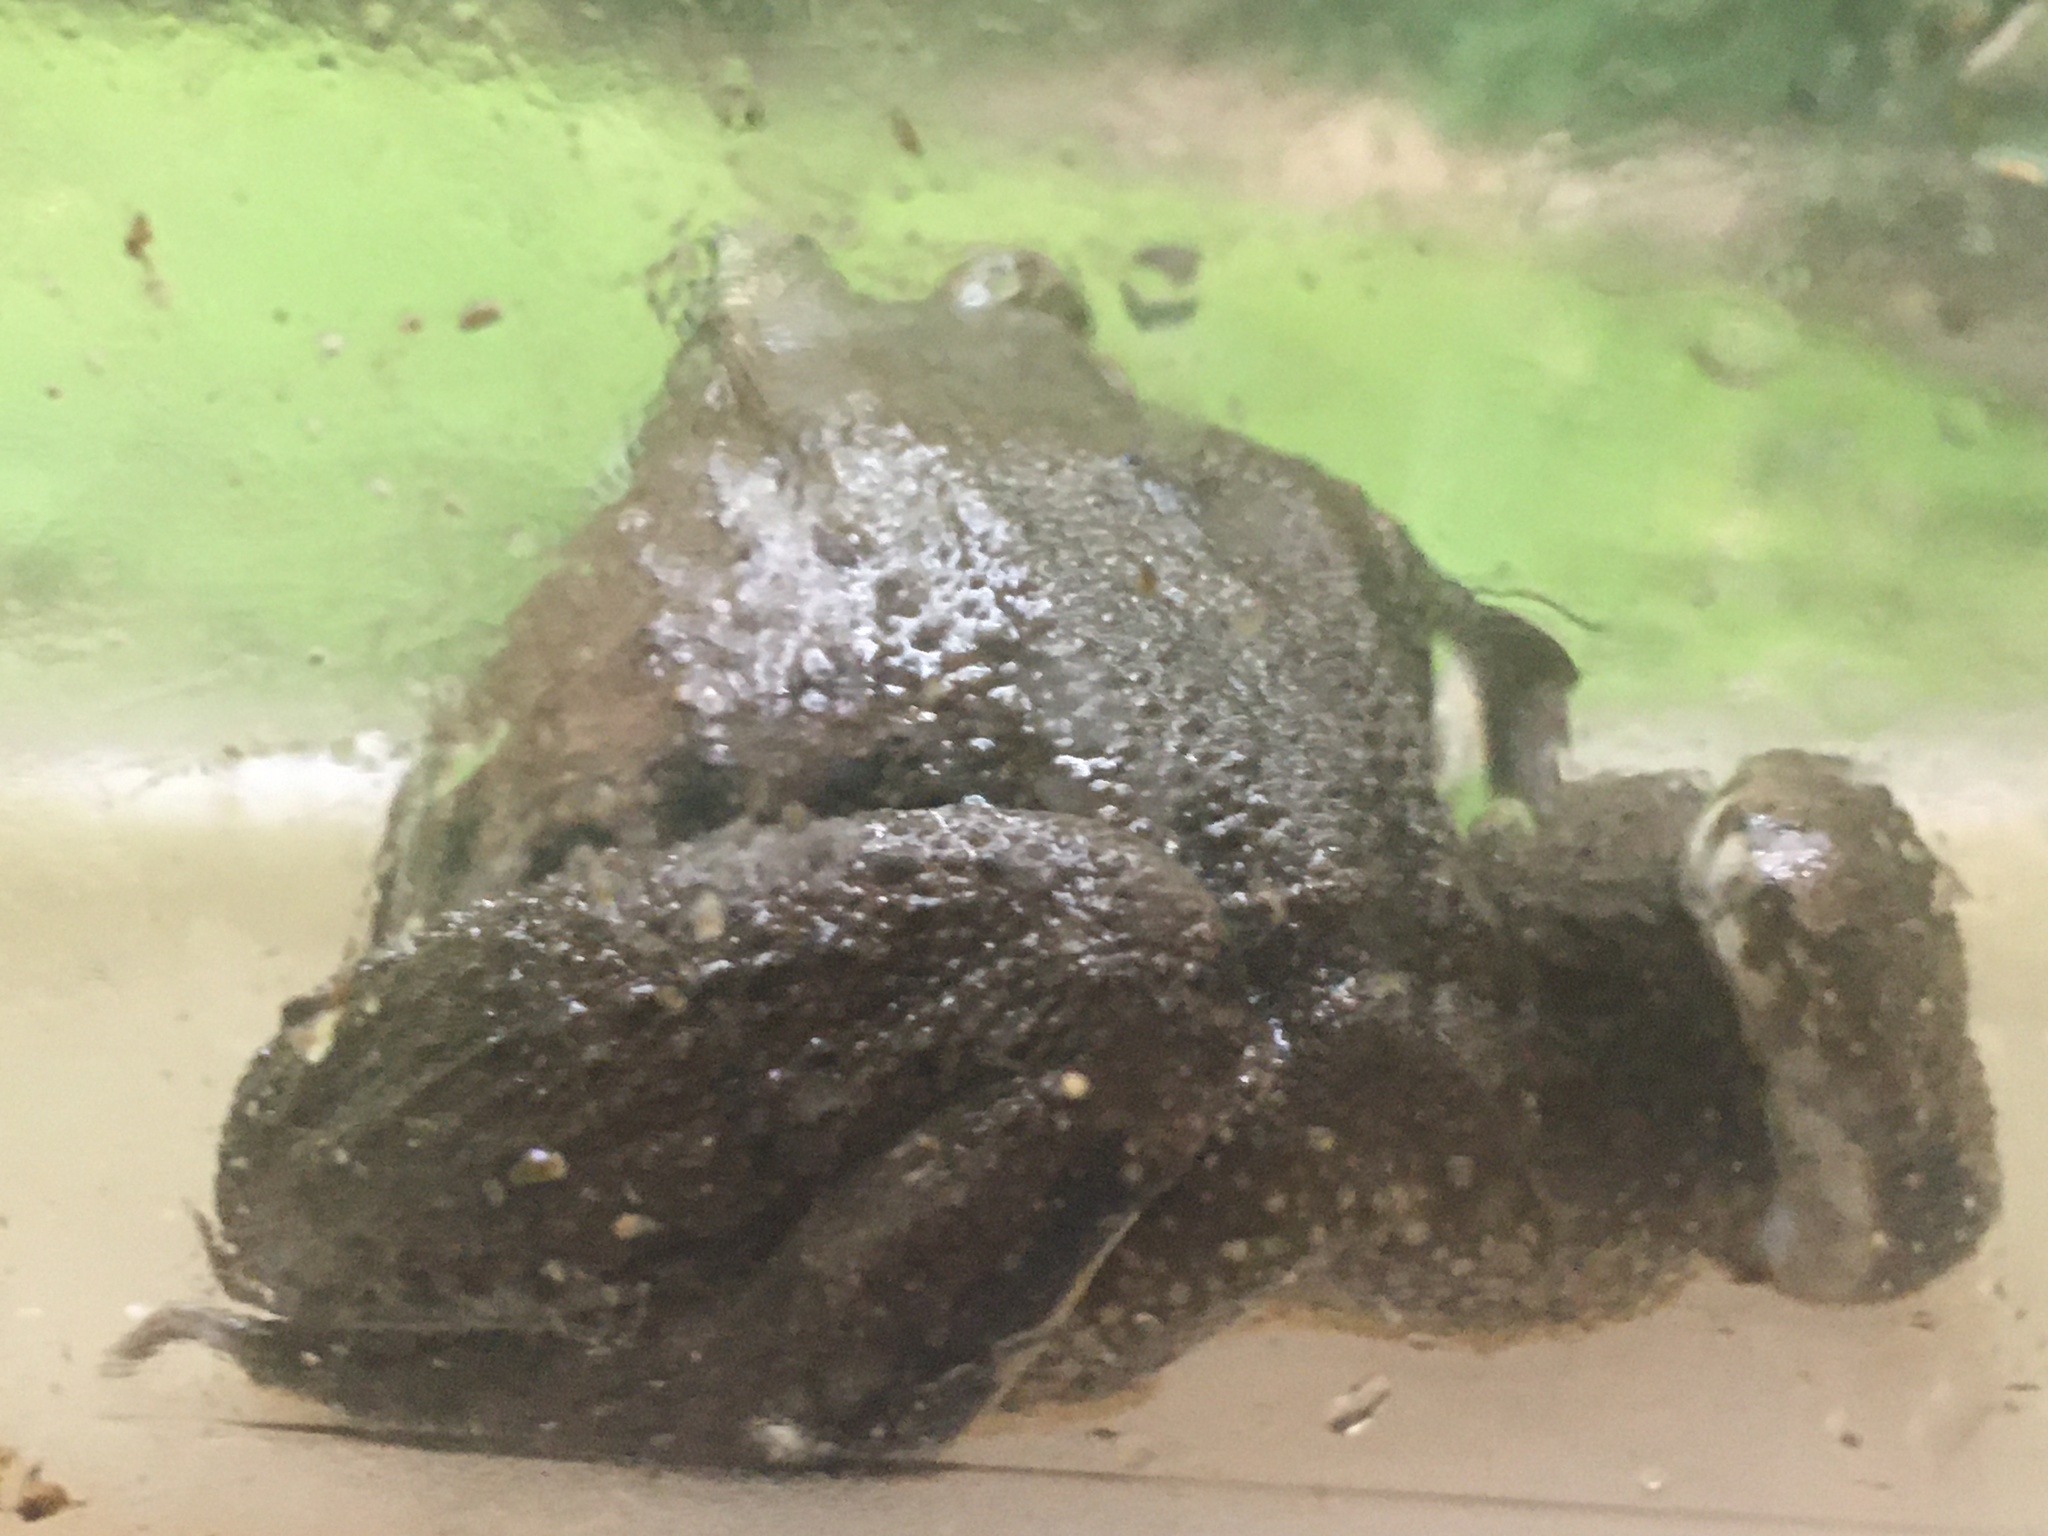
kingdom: Animalia
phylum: Chordata
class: Amphibia
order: Anura
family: Ranidae
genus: Lithobates
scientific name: Lithobates clamitans
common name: Green frog
